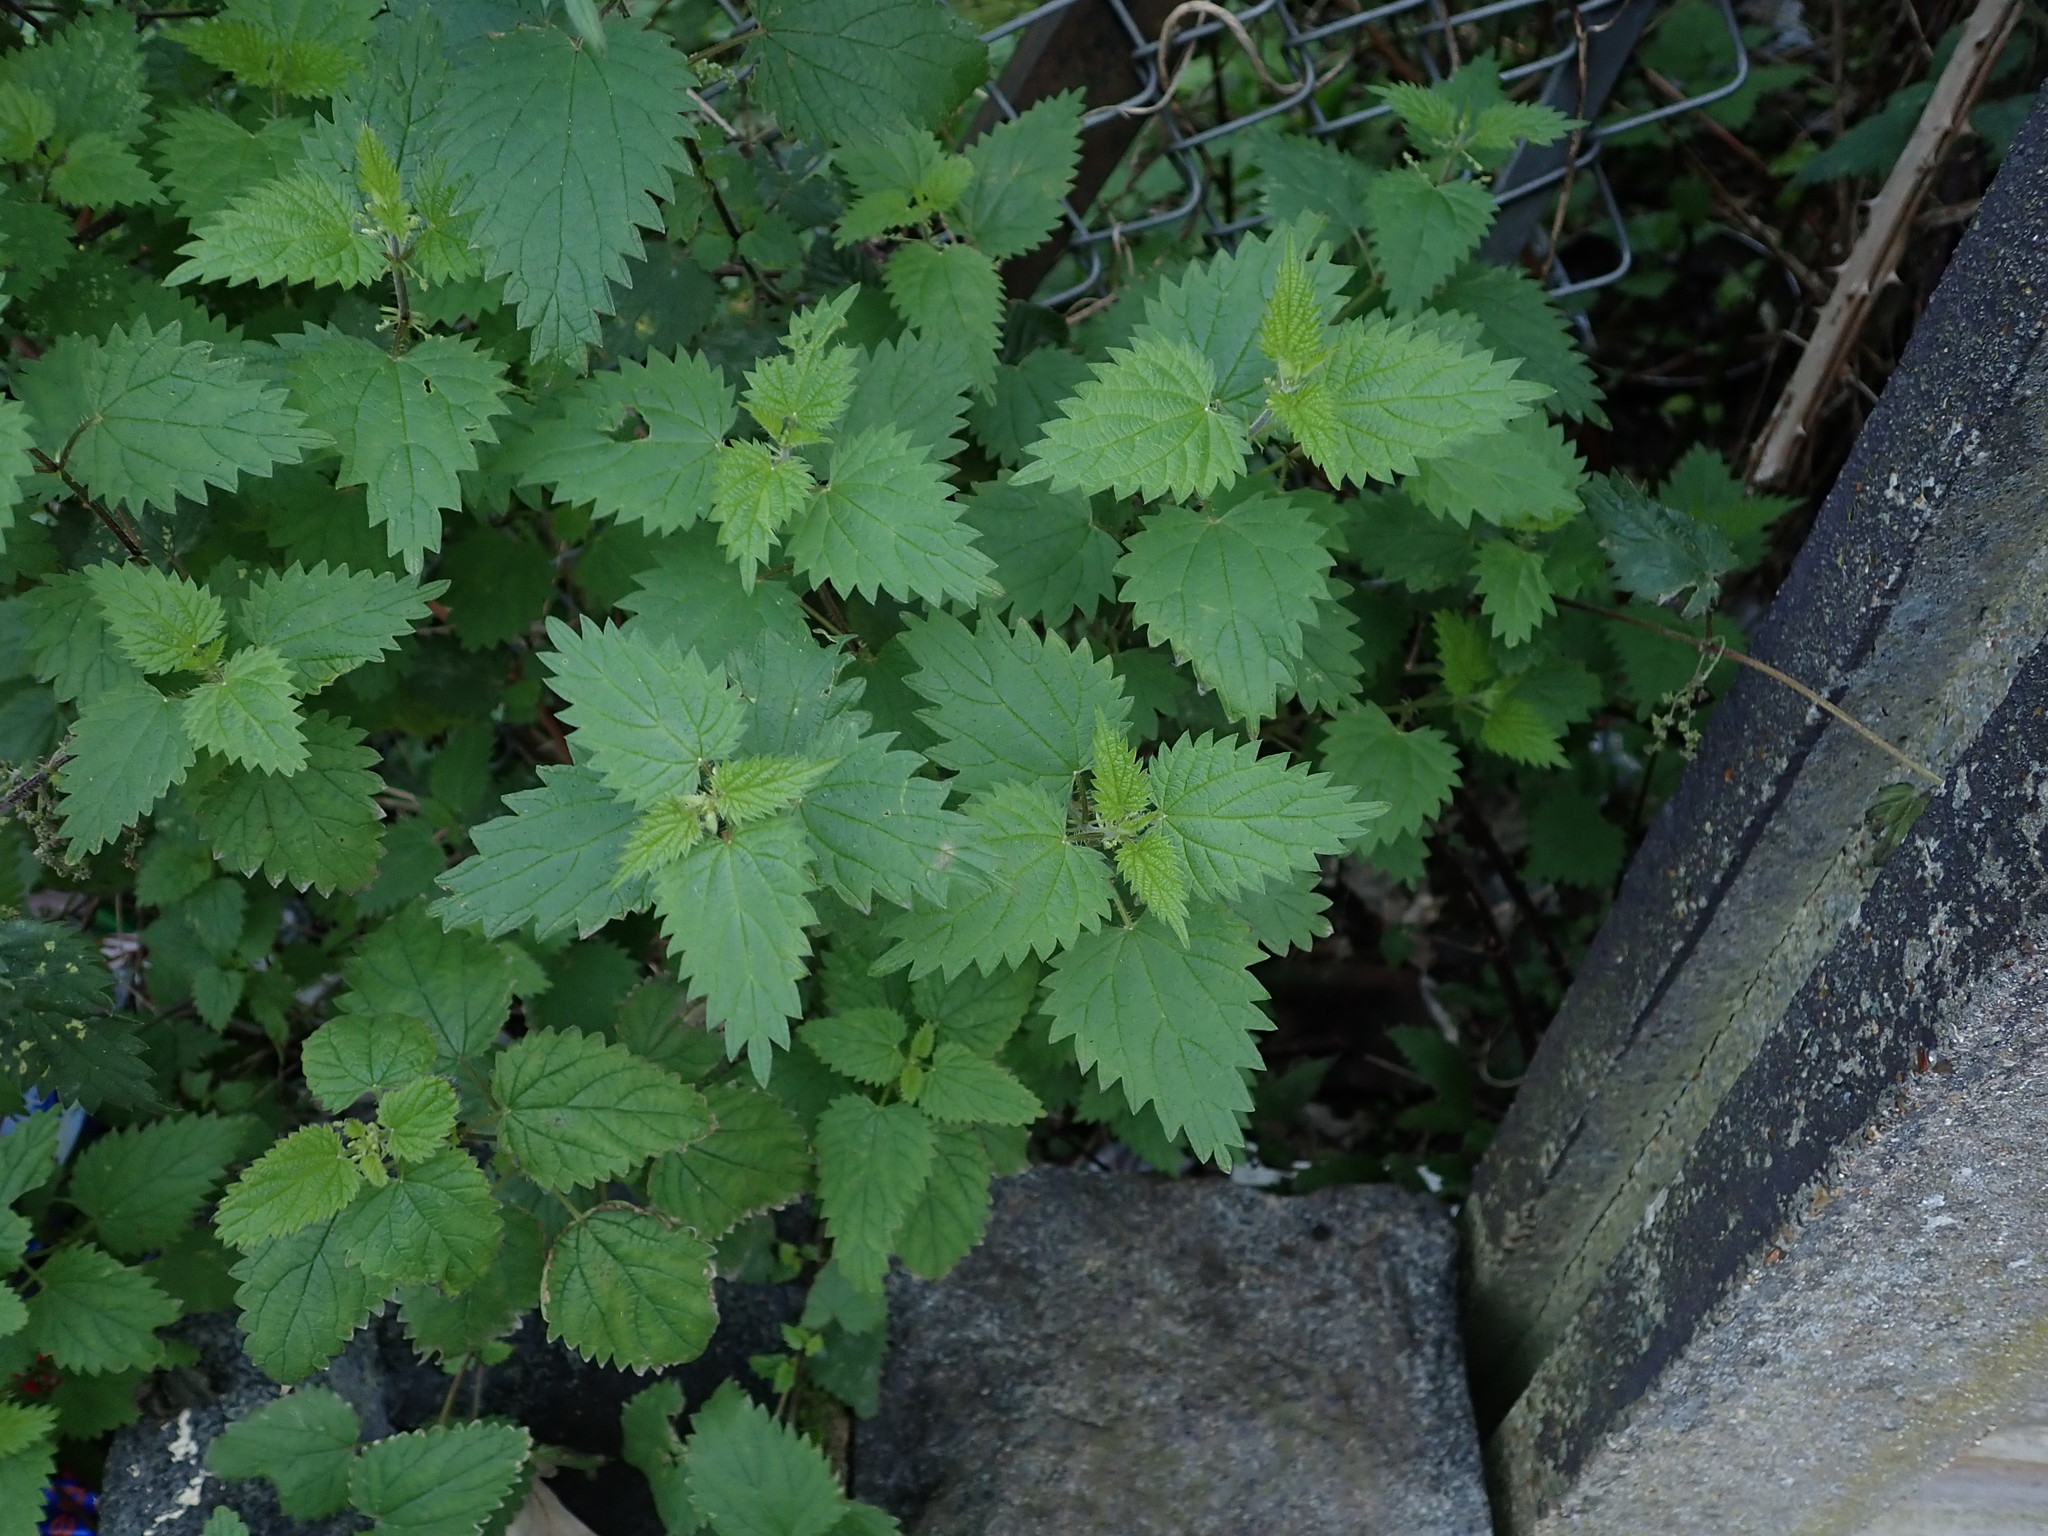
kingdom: Plantae
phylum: Tracheophyta
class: Magnoliopsida
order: Rosales
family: Urticaceae
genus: Urtica
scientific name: Urtica dioica
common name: Common nettle
